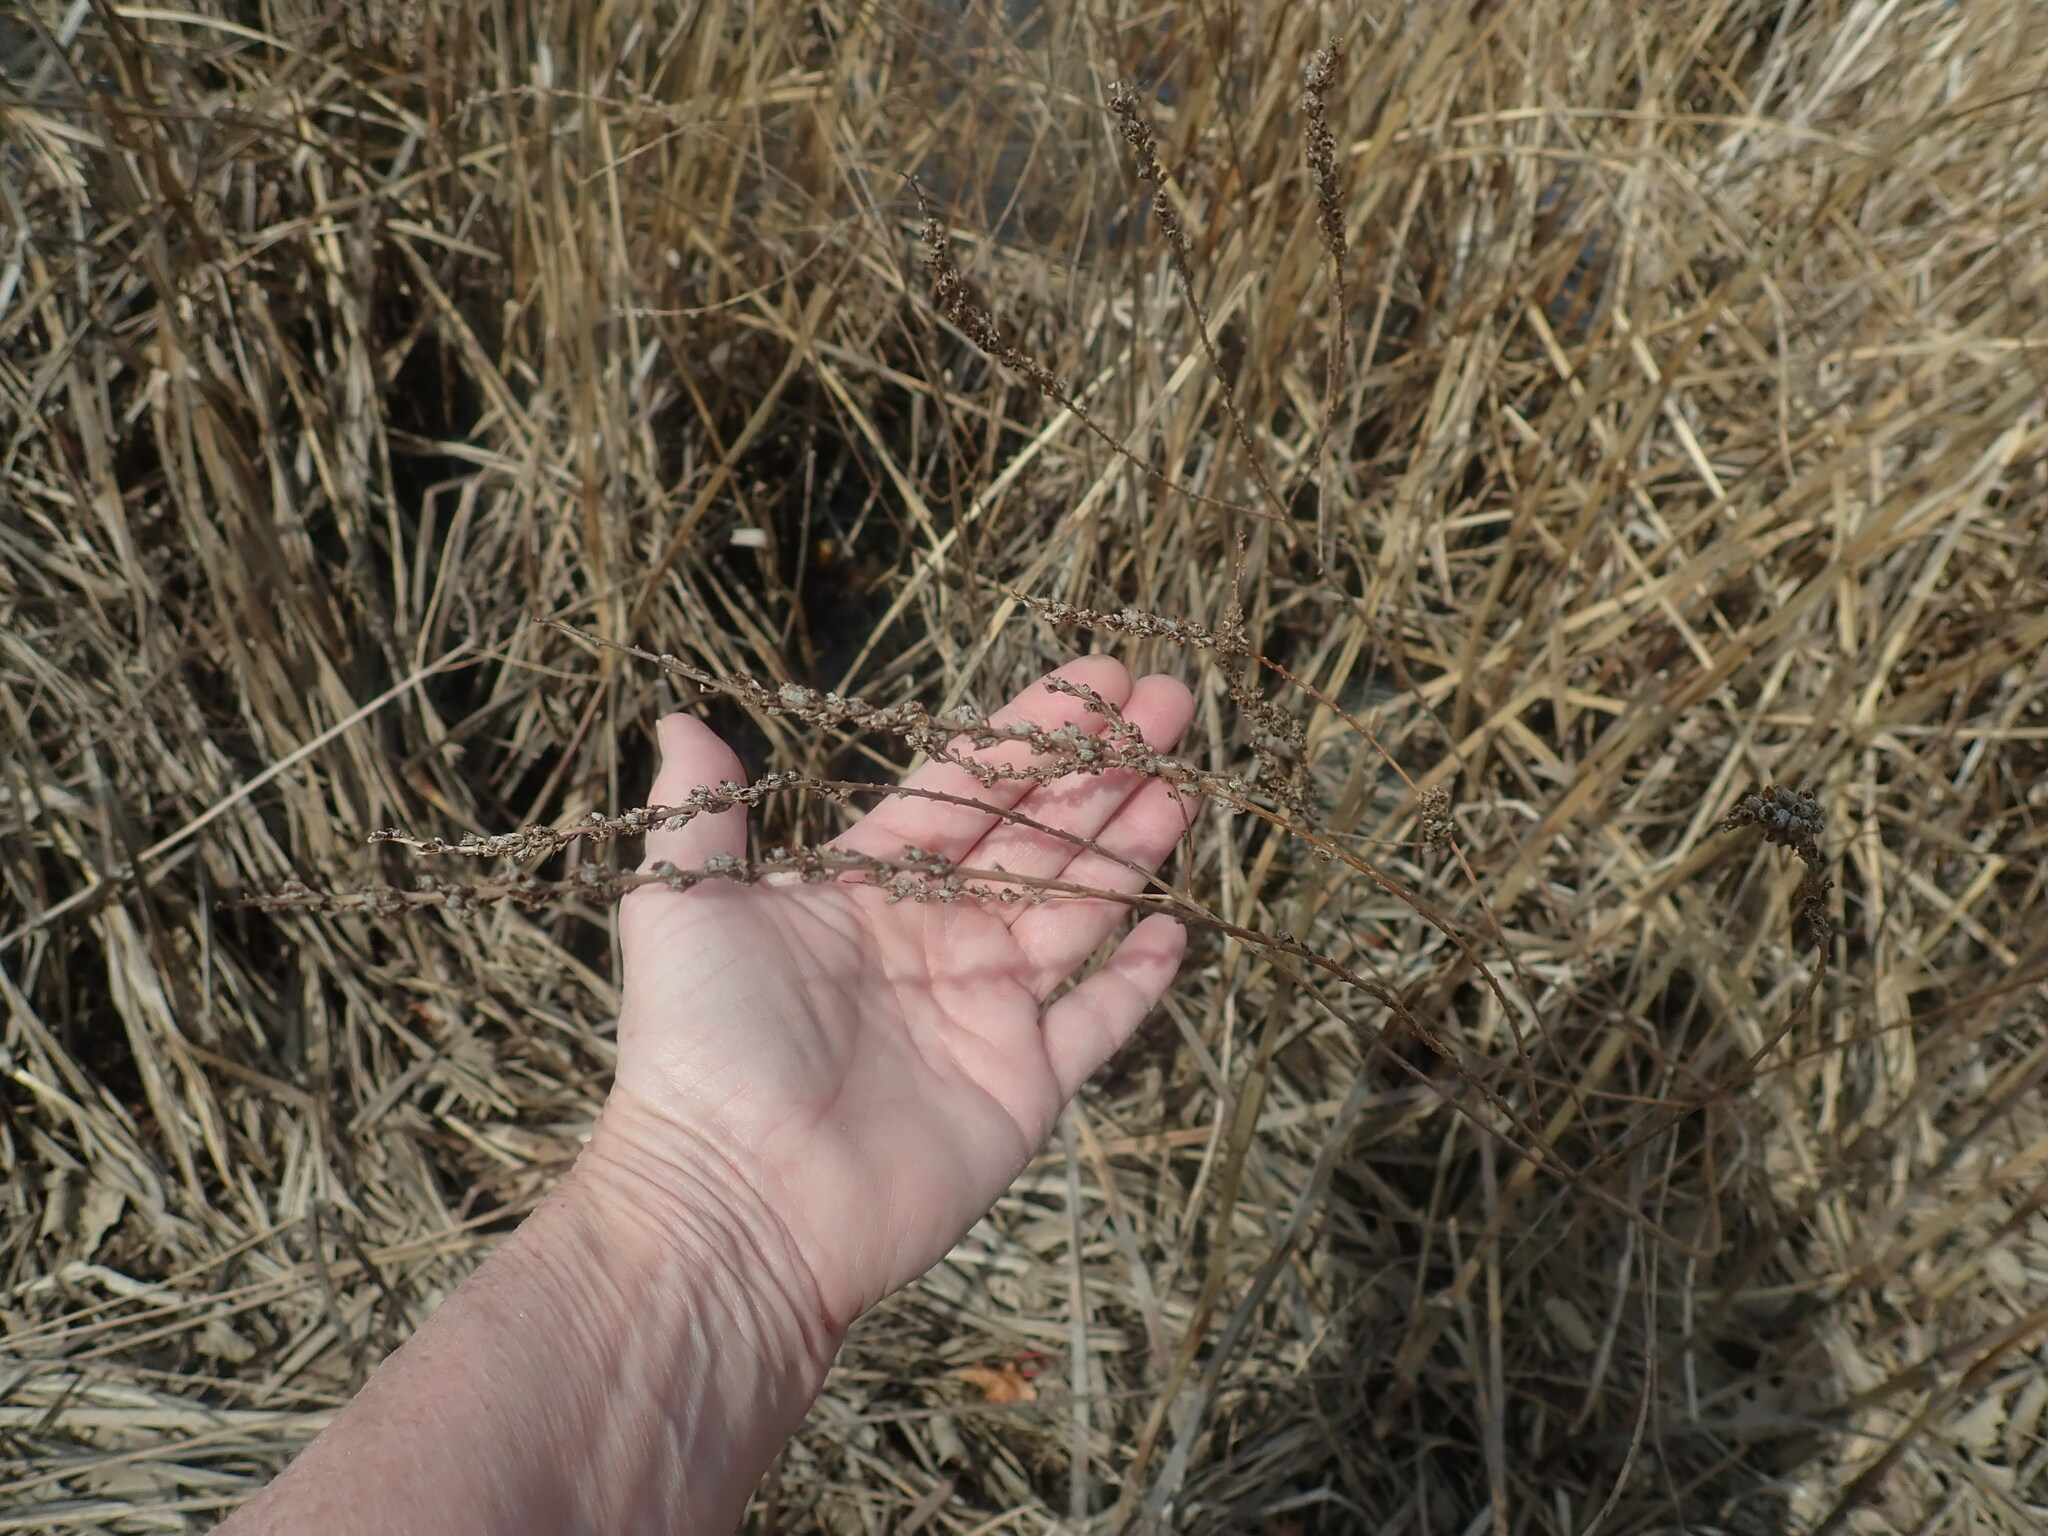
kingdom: Plantae
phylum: Tracheophyta
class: Magnoliopsida
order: Myrtales
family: Lythraceae
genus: Lythrum
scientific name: Lythrum salicaria
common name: Purple loosestrife
